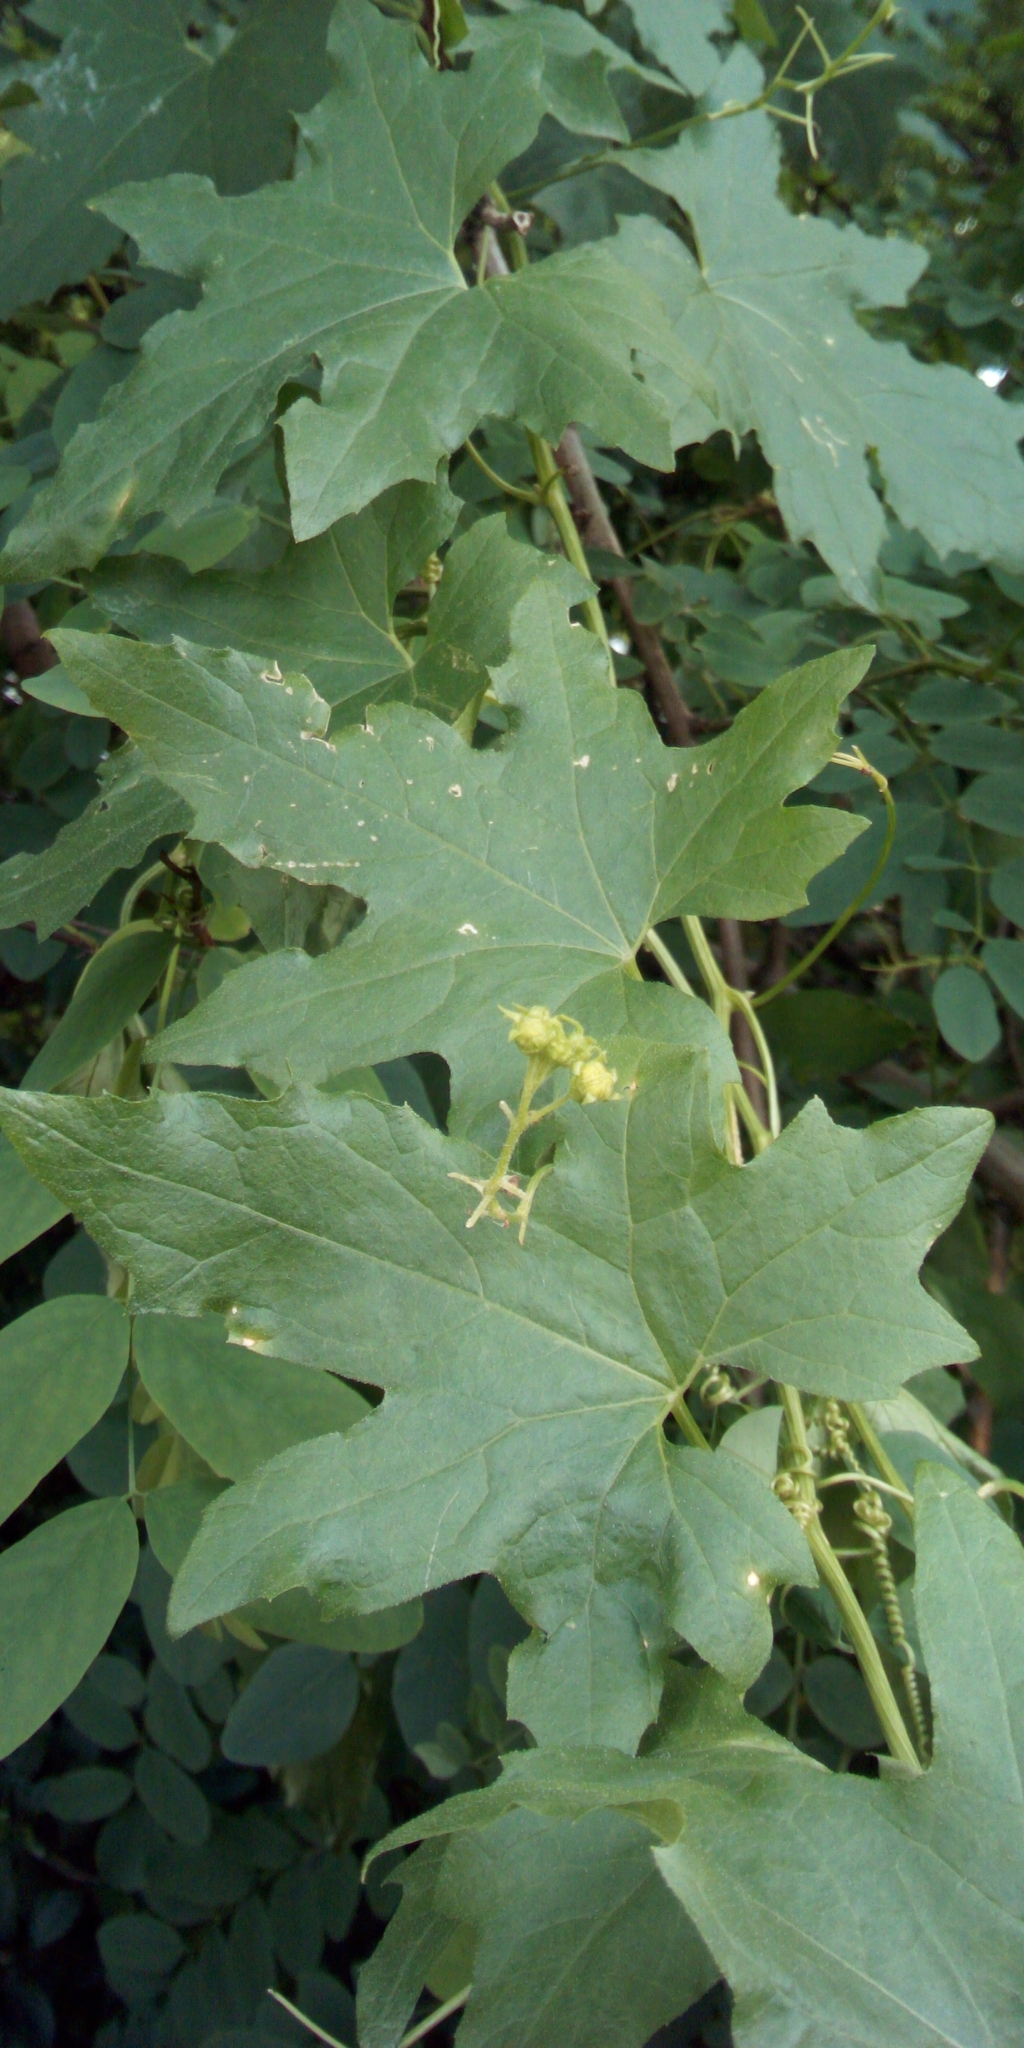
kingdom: Plantae
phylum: Tracheophyta
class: Magnoliopsida
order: Cucurbitales
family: Cucurbitaceae
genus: Bryonia
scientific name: Bryonia alba
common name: White bryony
